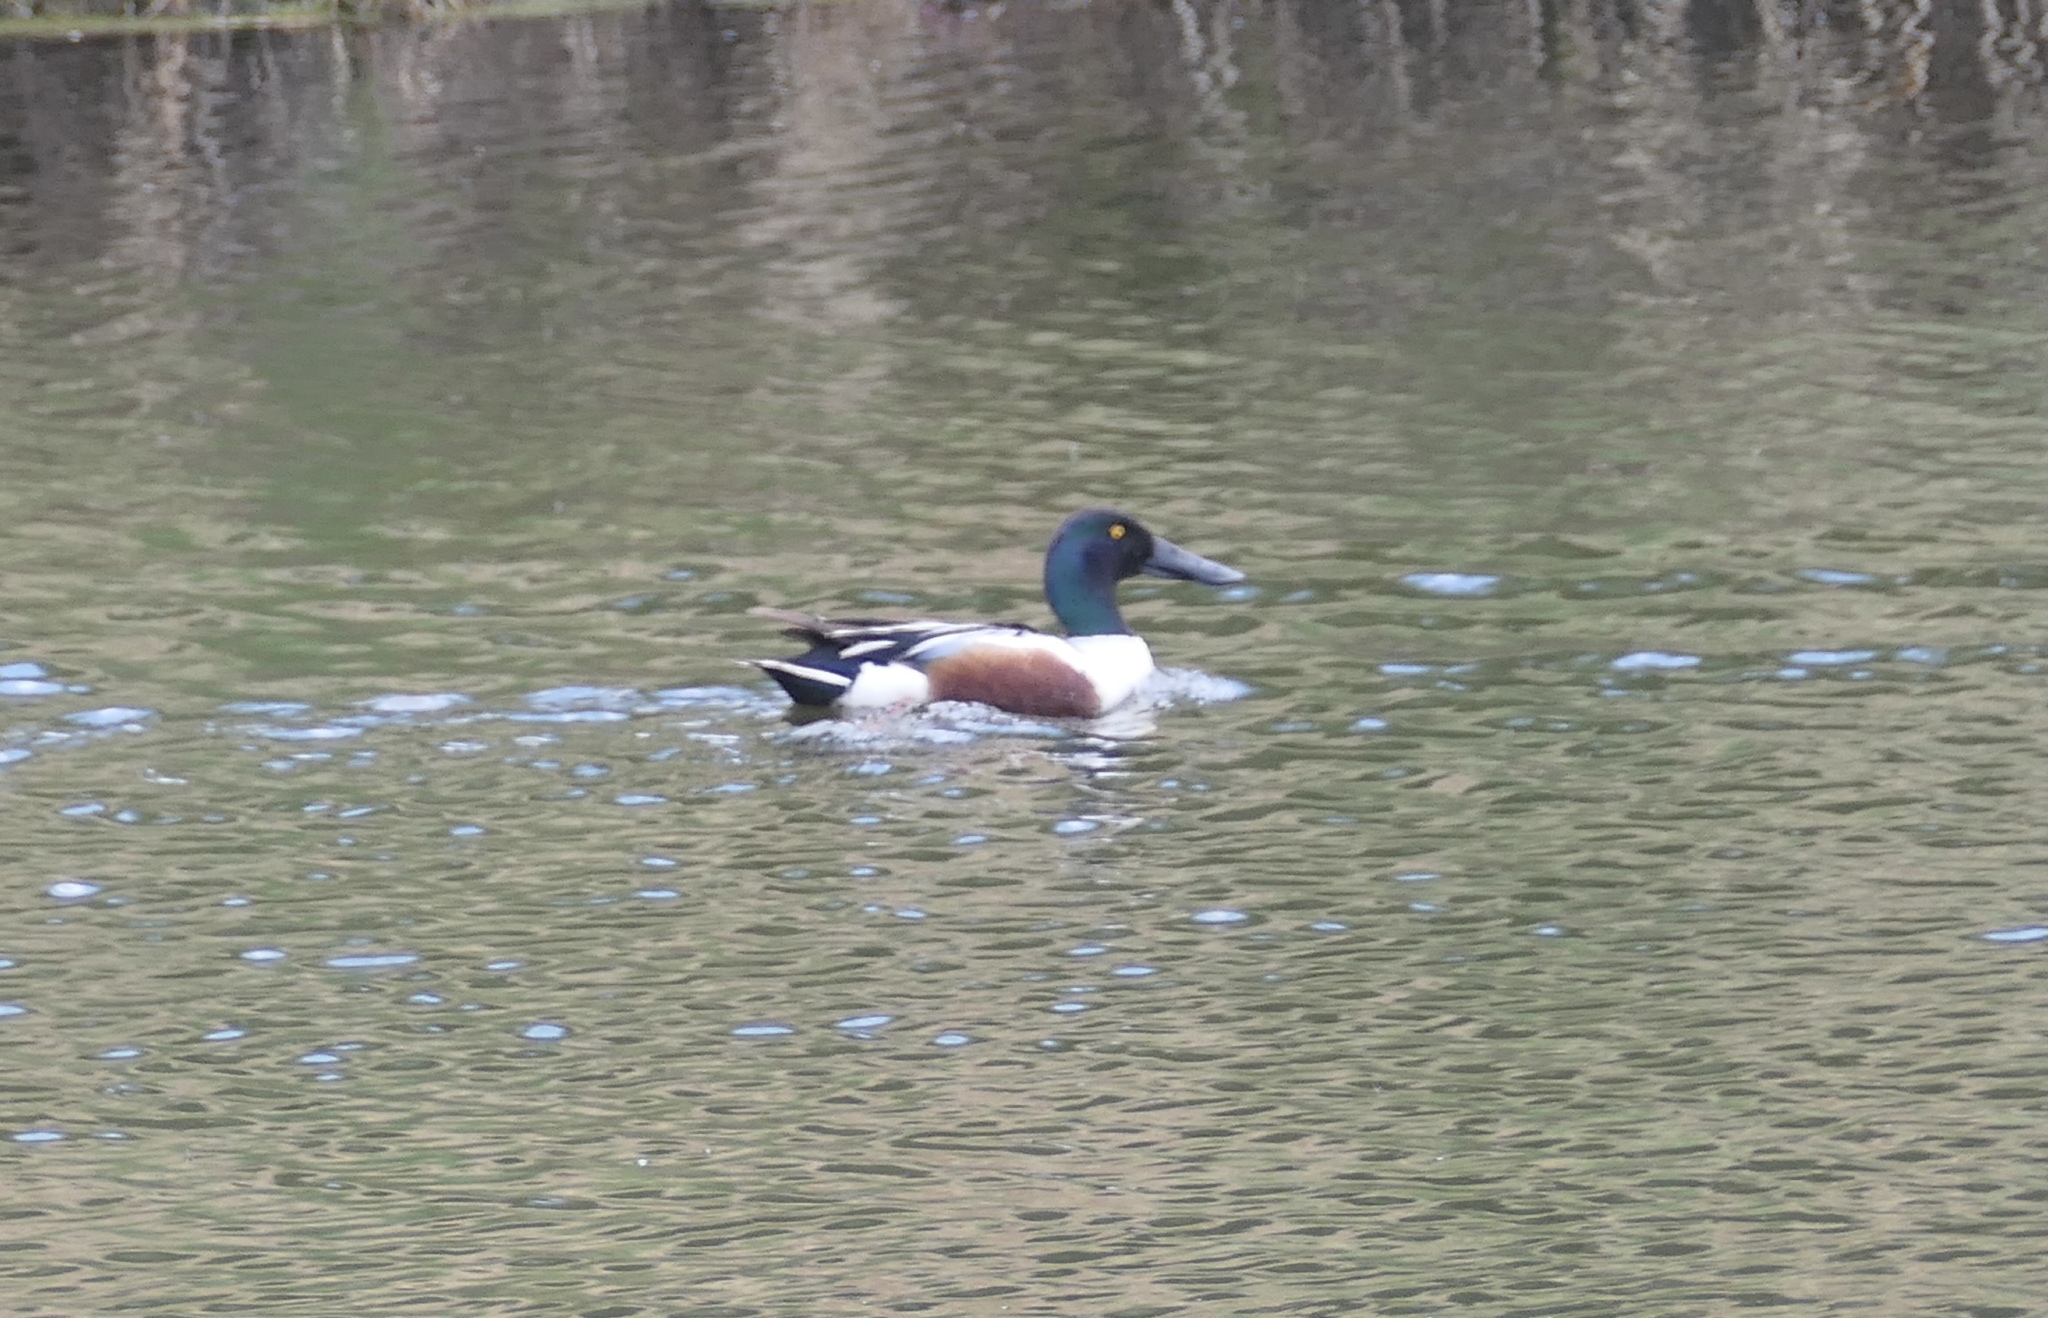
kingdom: Animalia
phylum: Chordata
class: Aves
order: Anseriformes
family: Anatidae
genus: Spatula
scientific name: Spatula clypeata
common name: Northern shoveler
